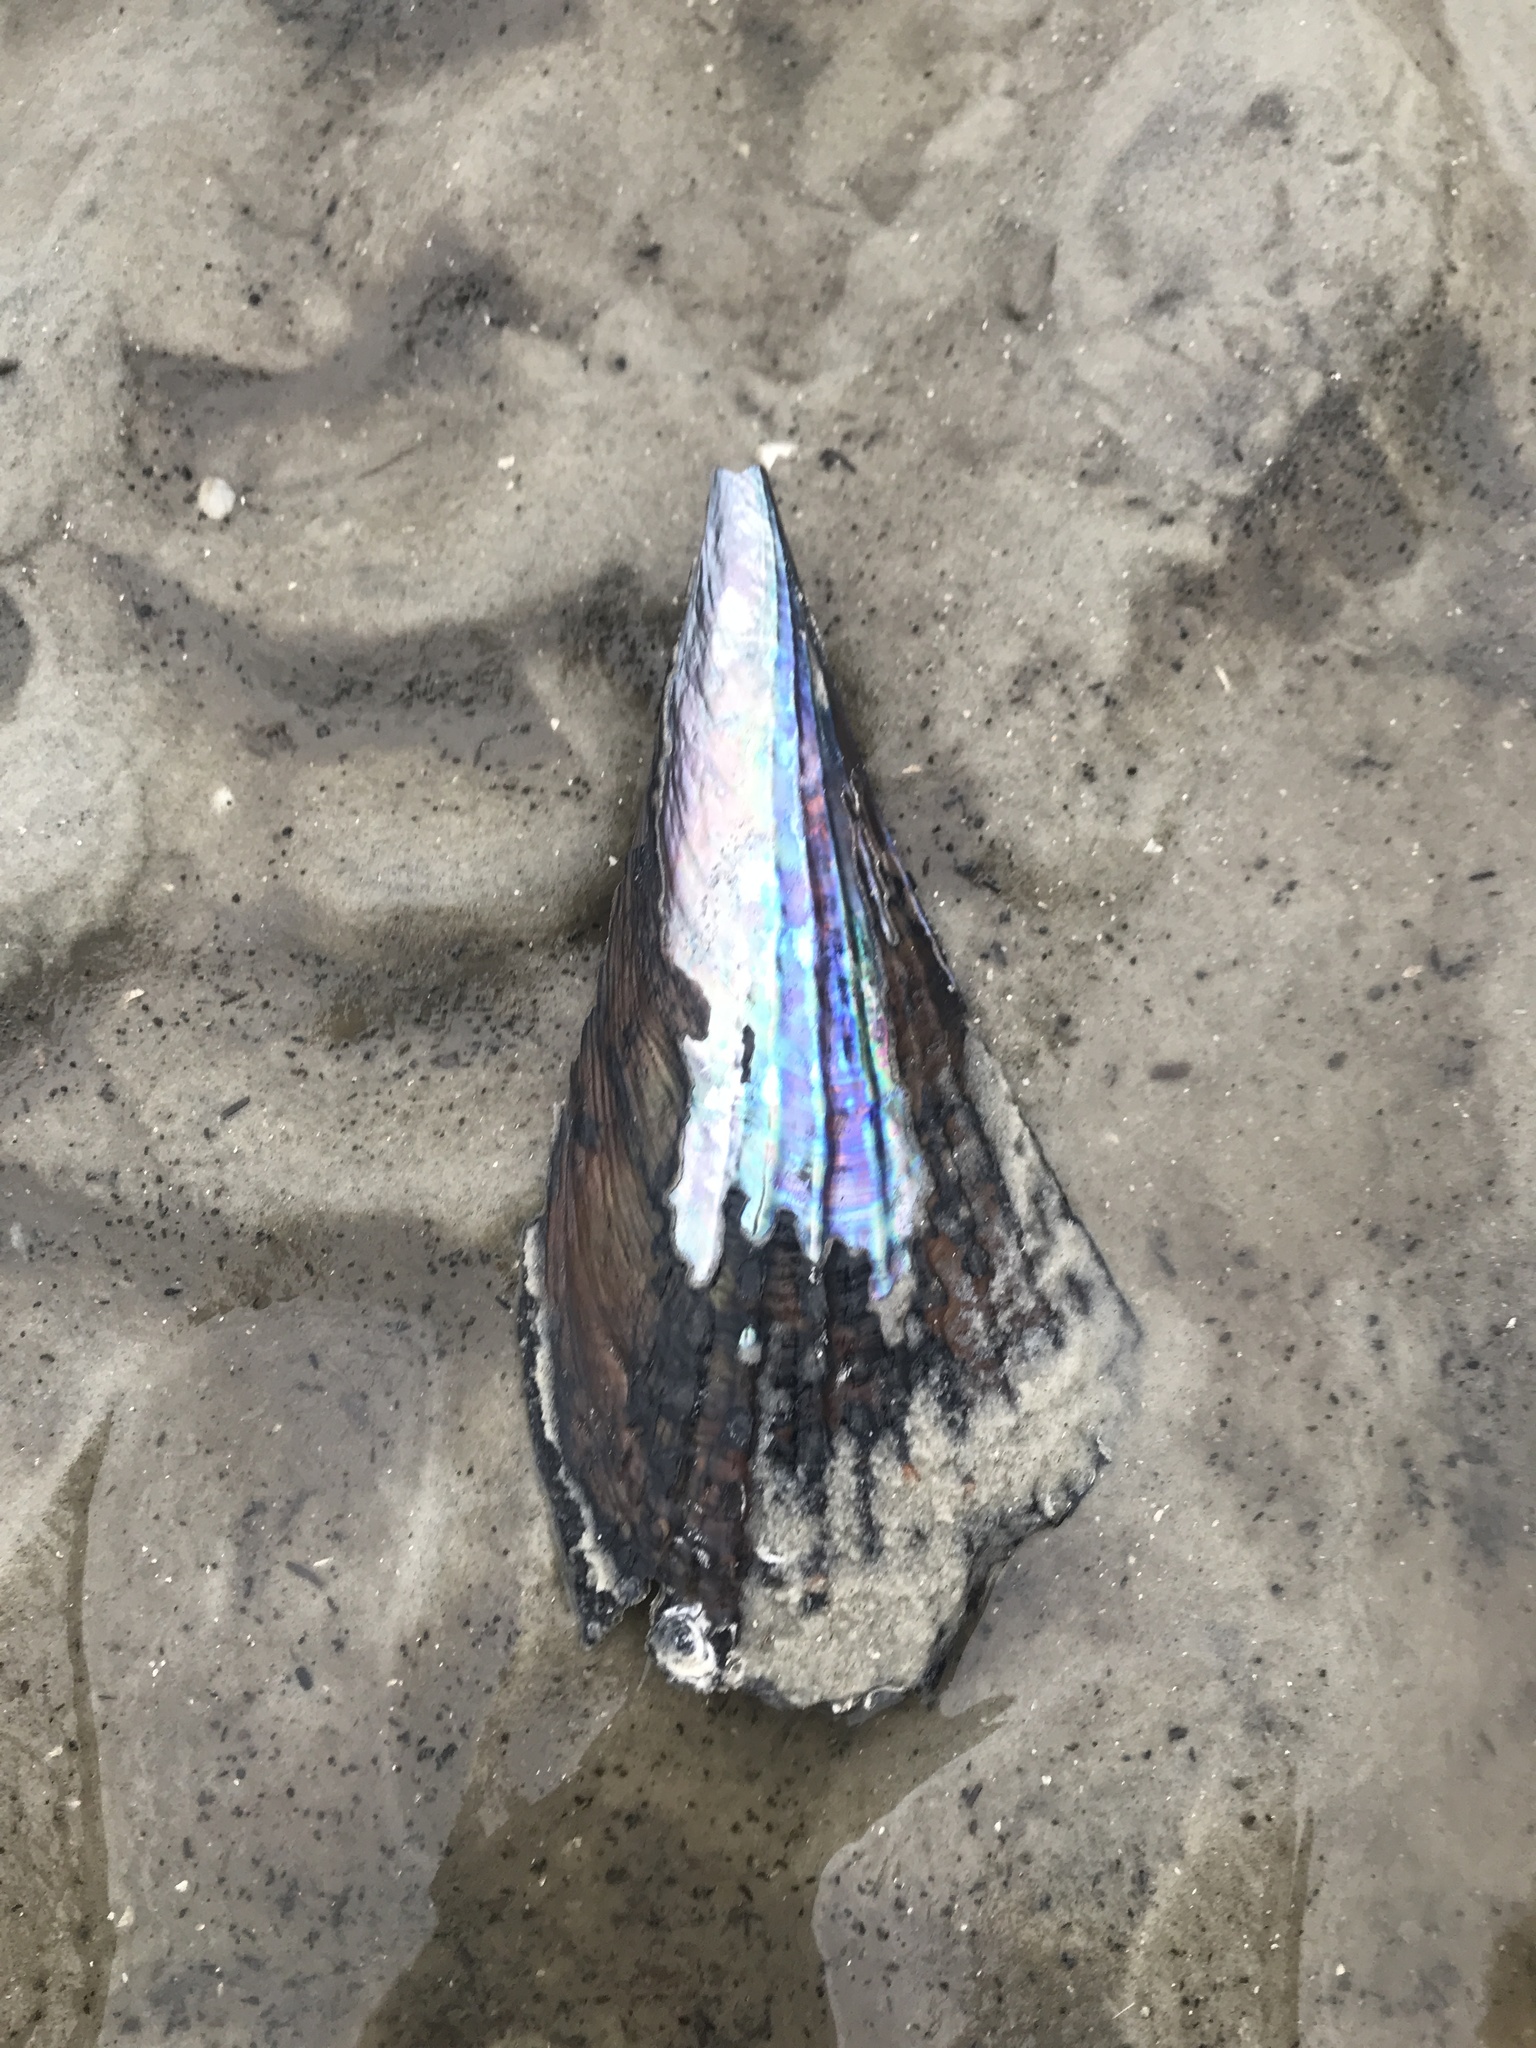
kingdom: Animalia
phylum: Mollusca
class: Bivalvia
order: Ostreida
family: Pinnidae
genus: Atrina
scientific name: Atrina rigida
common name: Stiff penshell
